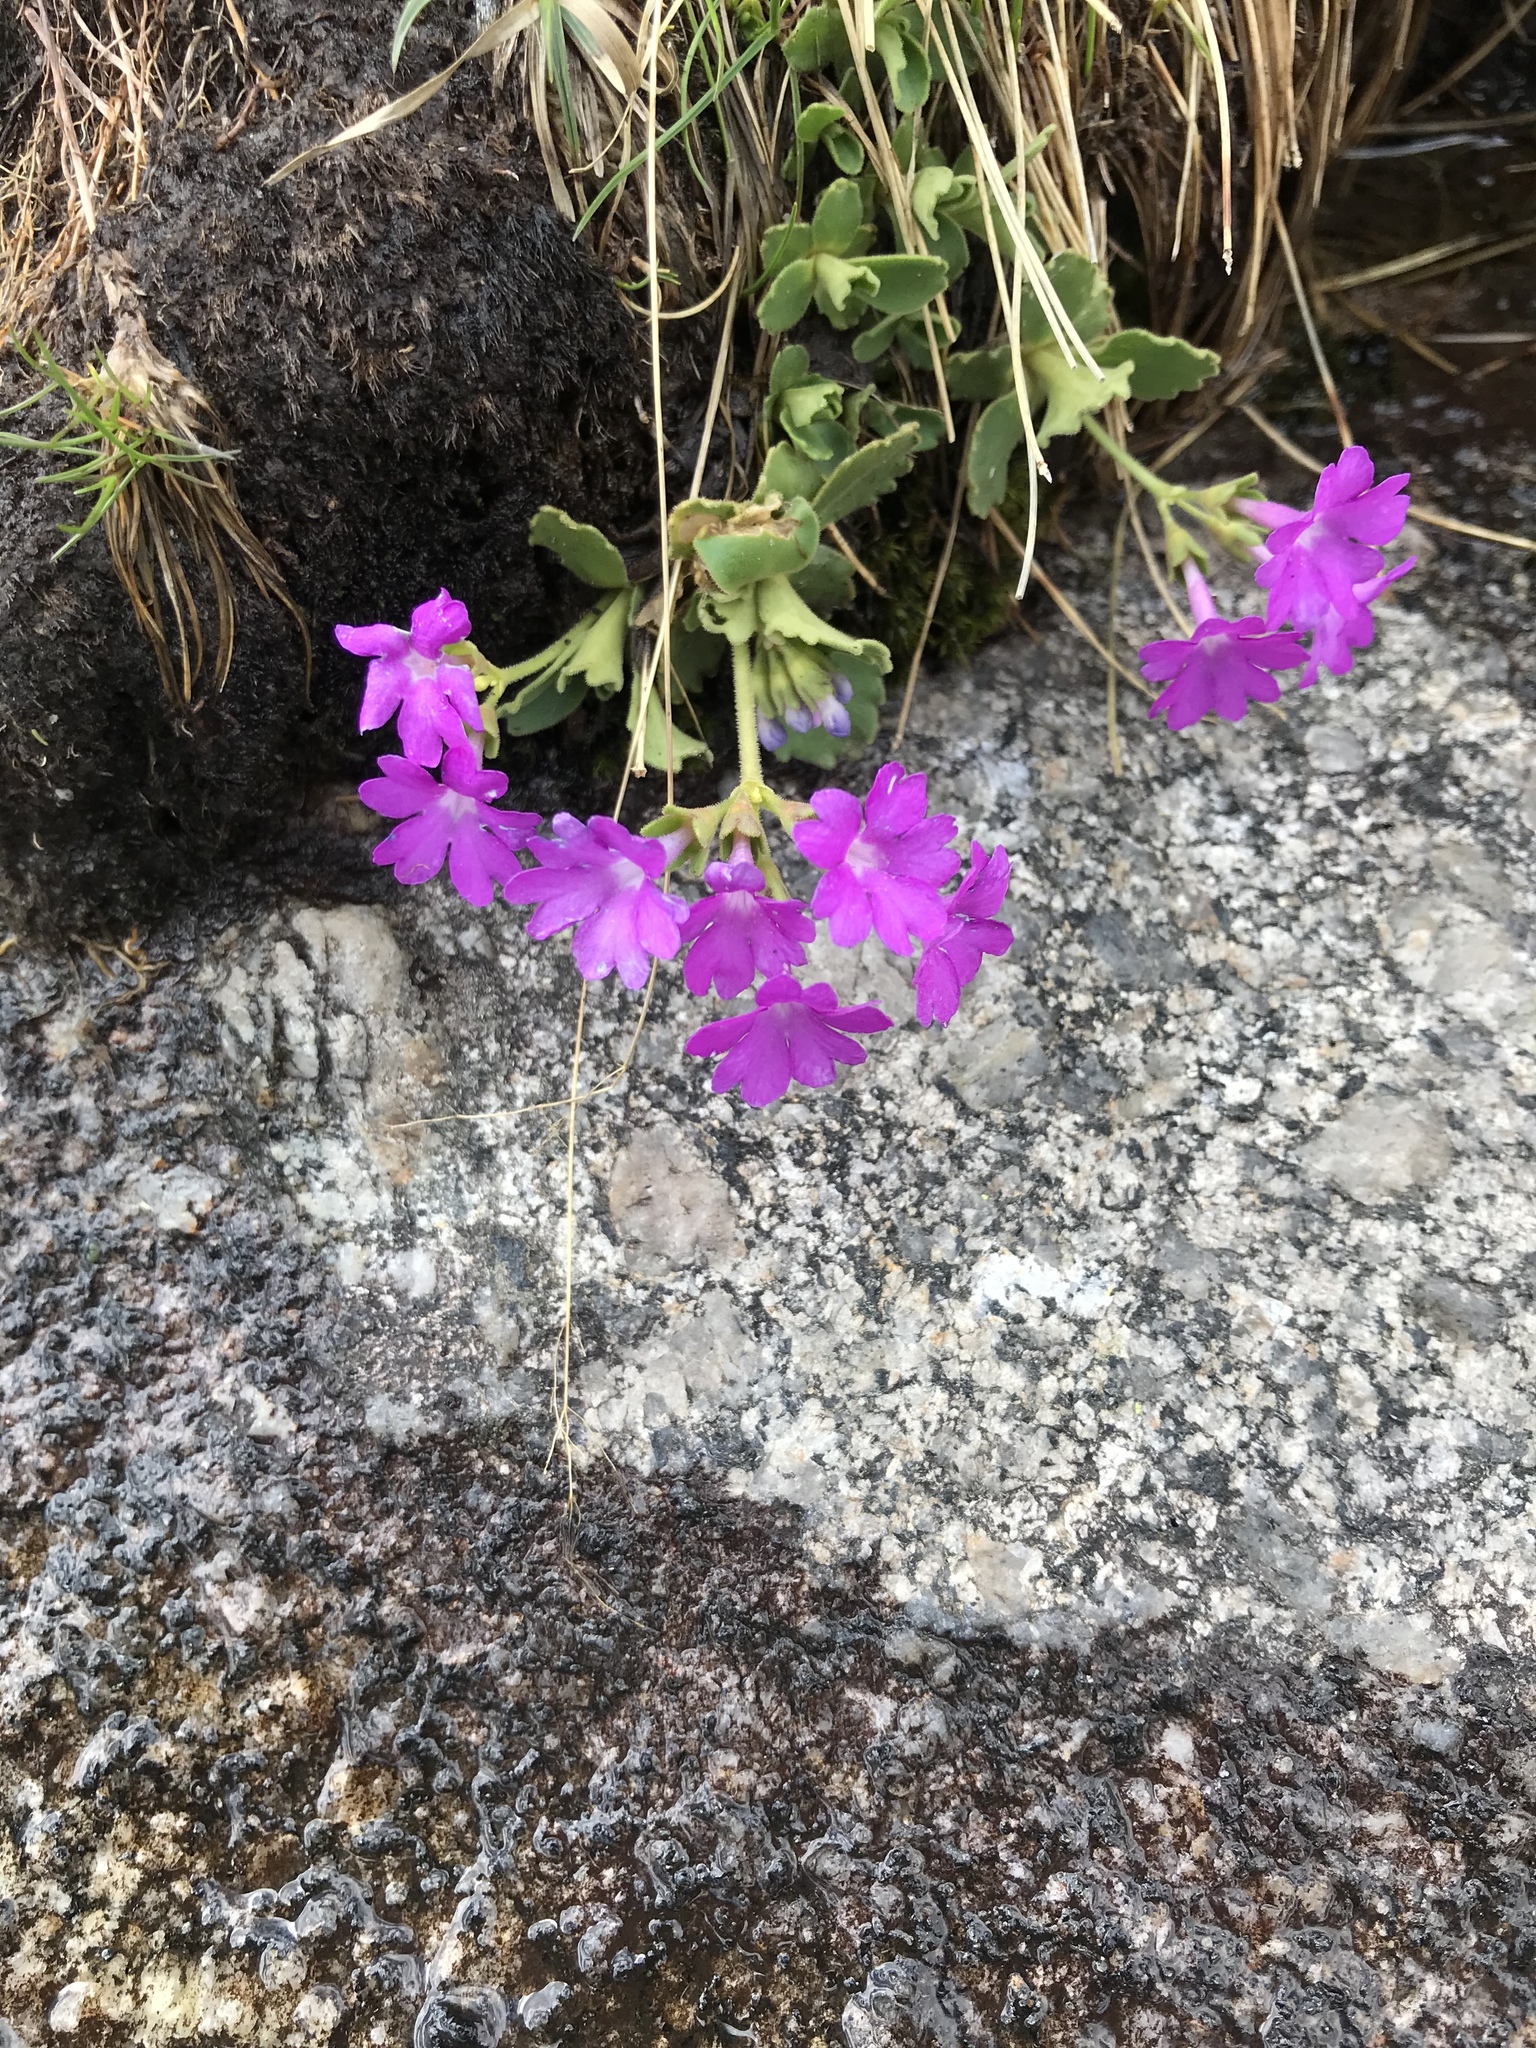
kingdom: Plantae
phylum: Tracheophyta
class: Magnoliopsida
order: Ericales
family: Primulaceae
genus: Primula
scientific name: Primula hirsuta
